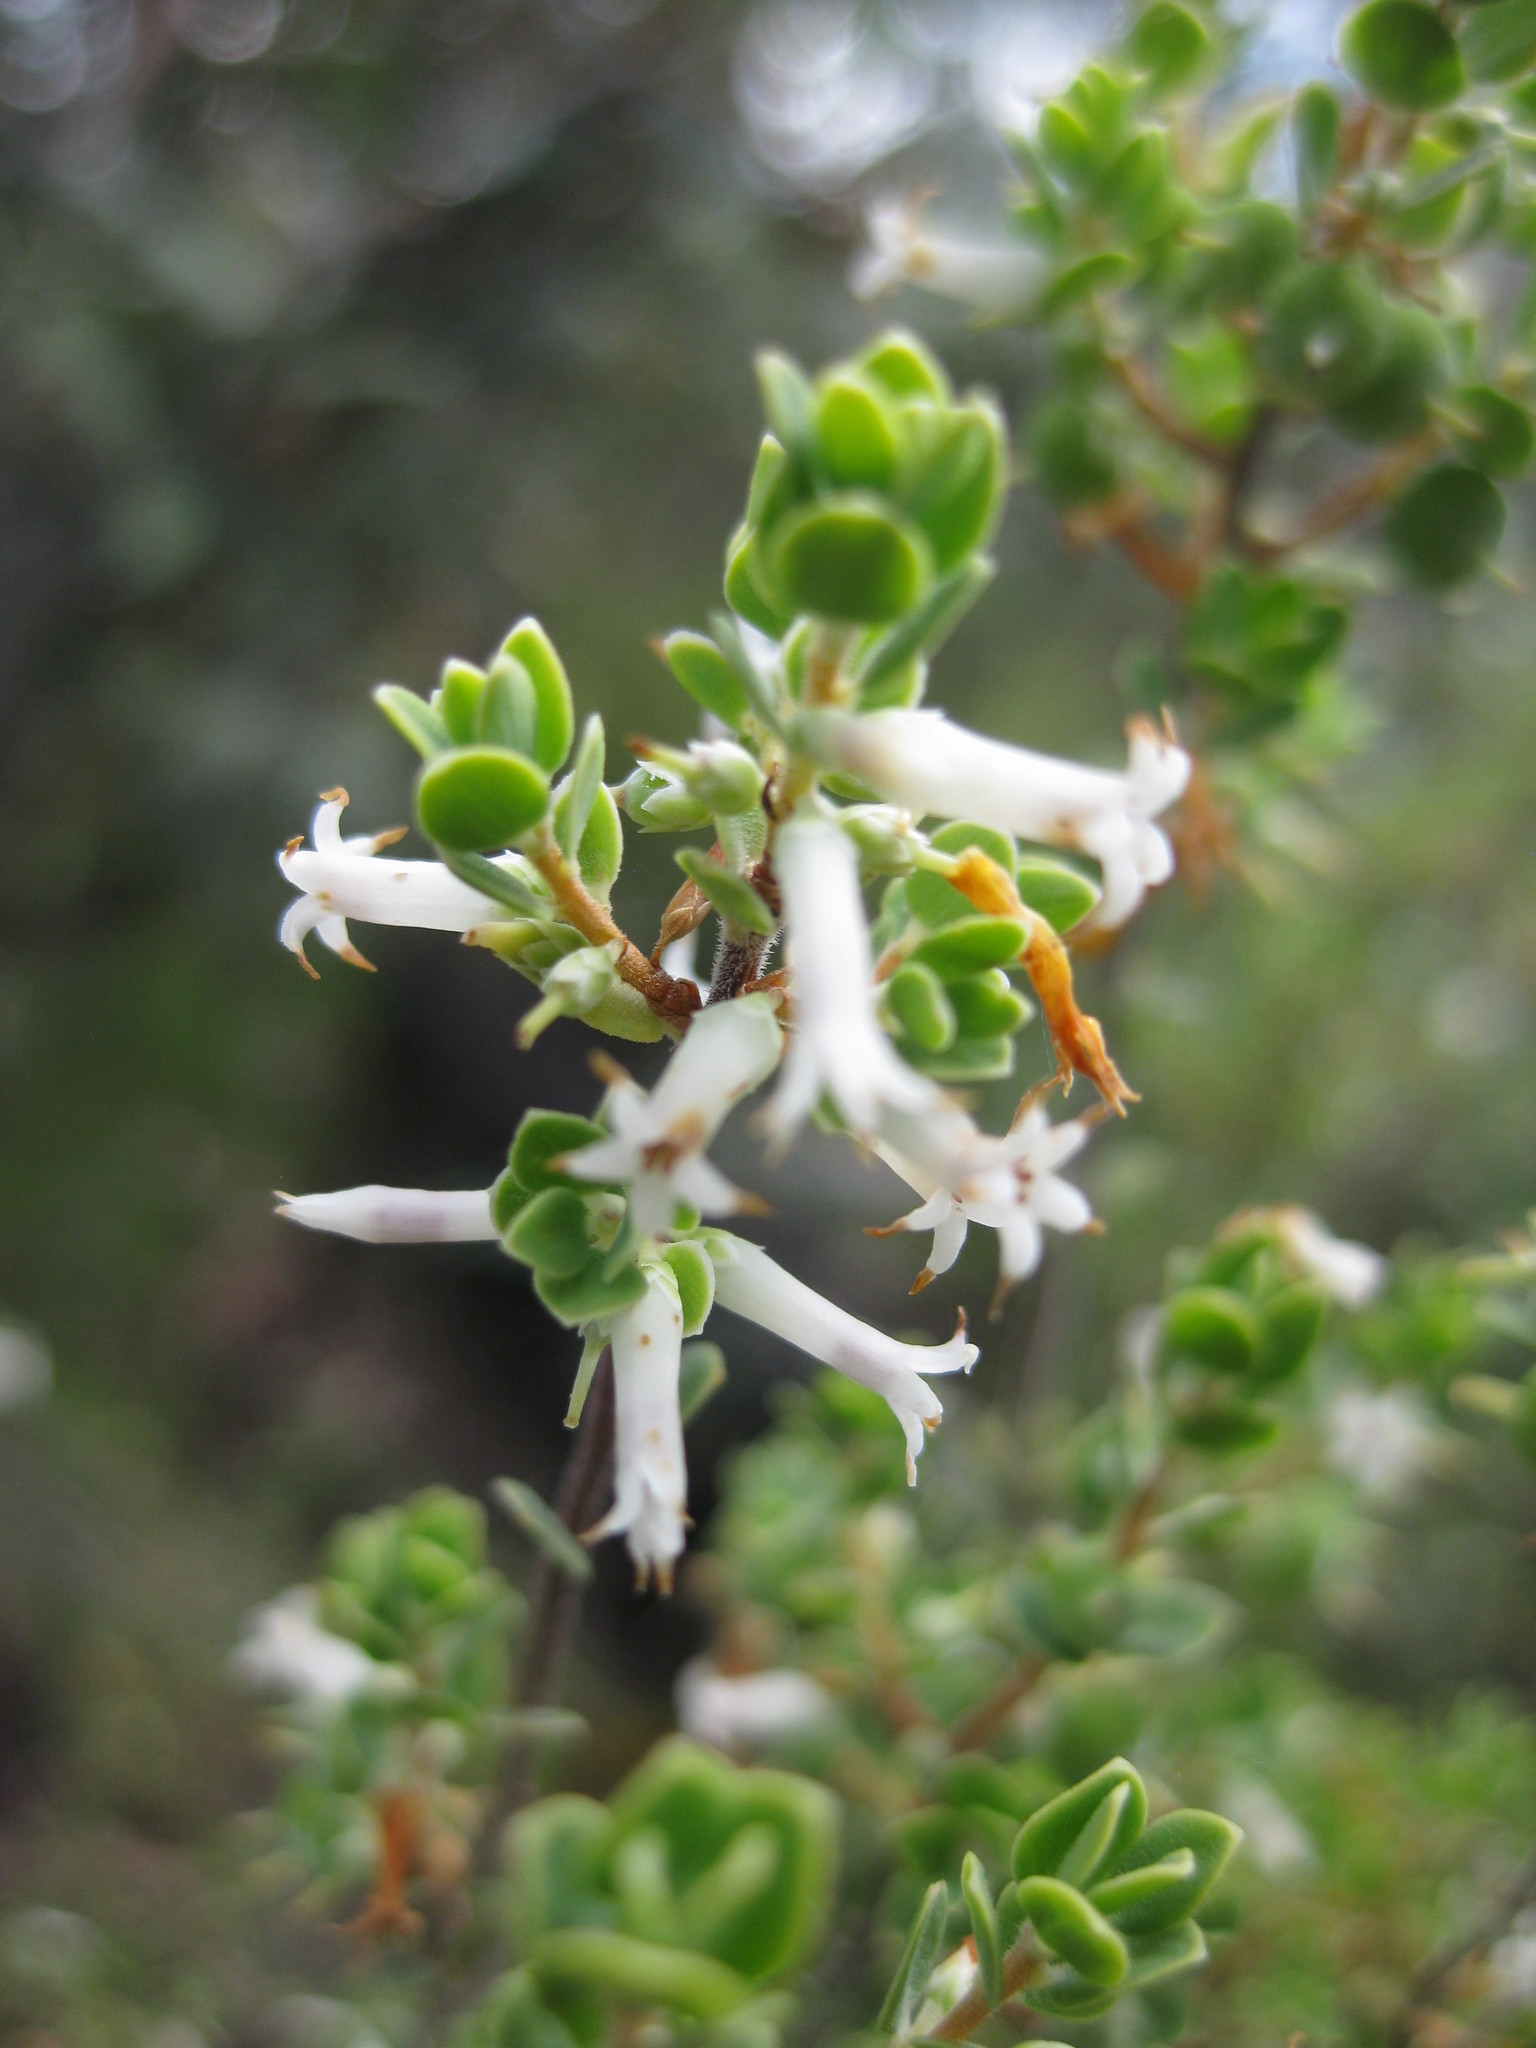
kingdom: Plantae
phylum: Tracheophyta
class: Magnoliopsida
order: Ericales
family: Ericaceae
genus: Brachyloma
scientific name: Brachyloma daphnoides
